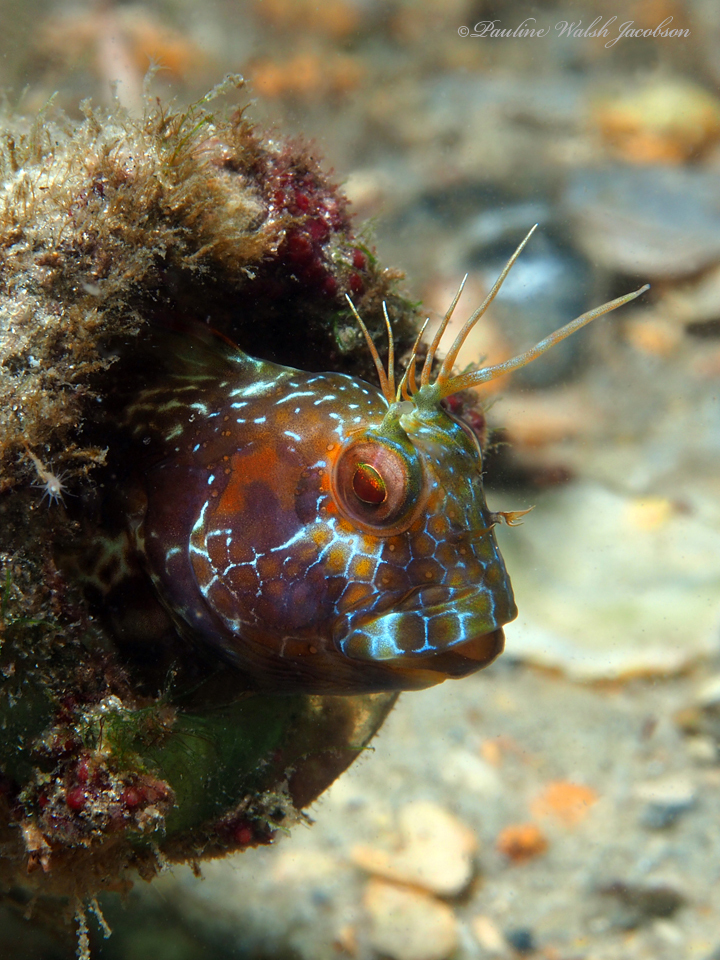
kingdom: Animalia
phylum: Chordata
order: Perciformes
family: Blenniidae
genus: Parablennius
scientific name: Parablennius marmoreus
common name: Seaweed blenny
